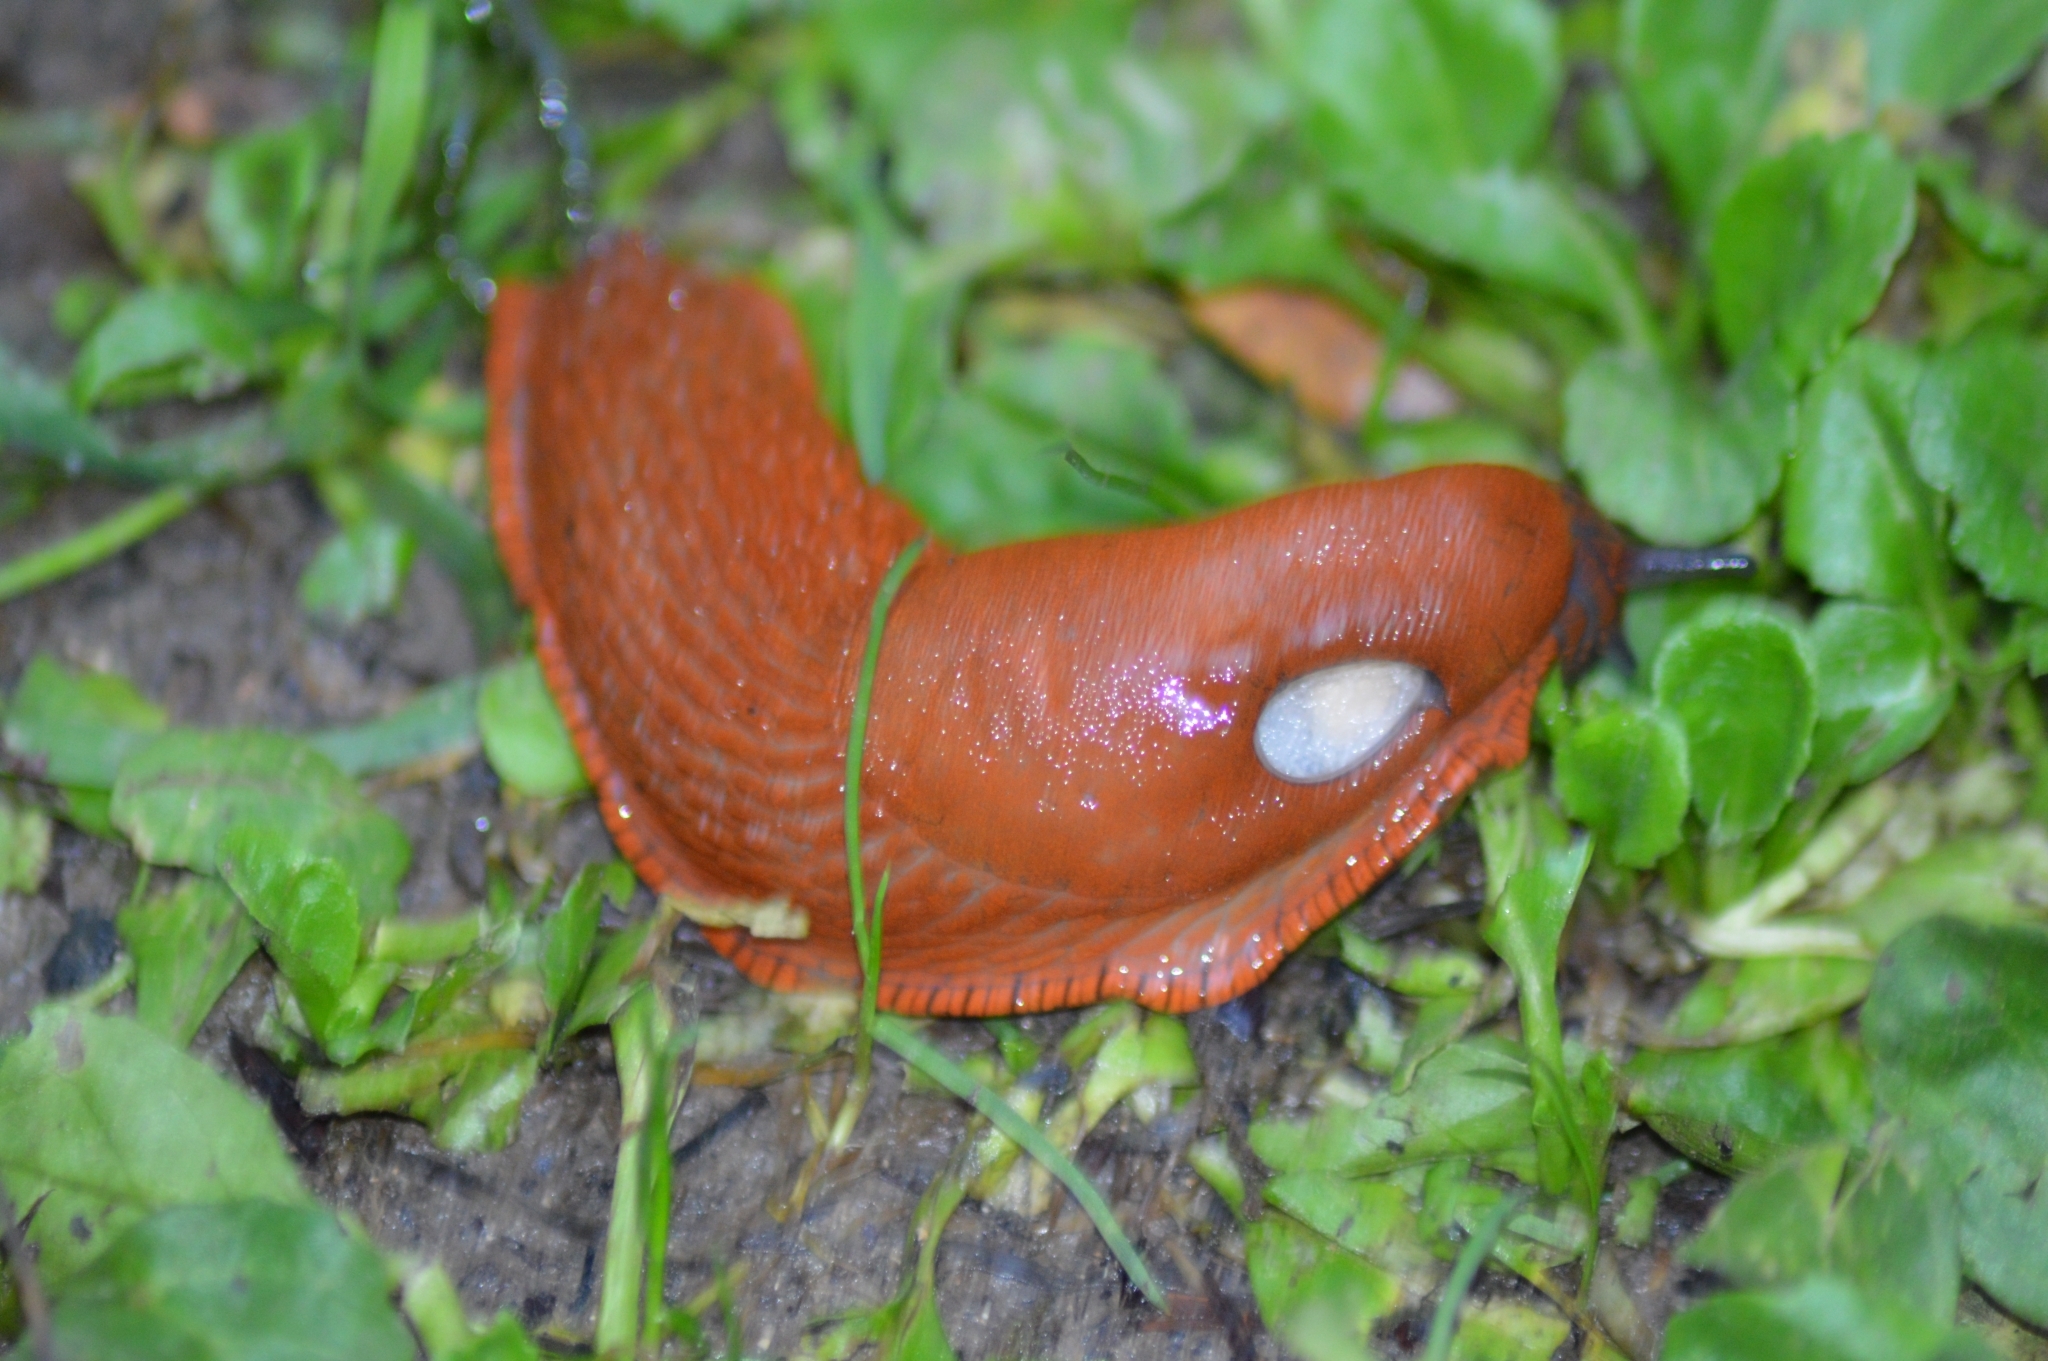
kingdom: Animalia
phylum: Mollusca
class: Gastropoda
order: Stylommatophora
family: Arionidae
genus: Arion
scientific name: Arion rufus
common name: Chocolate arion
